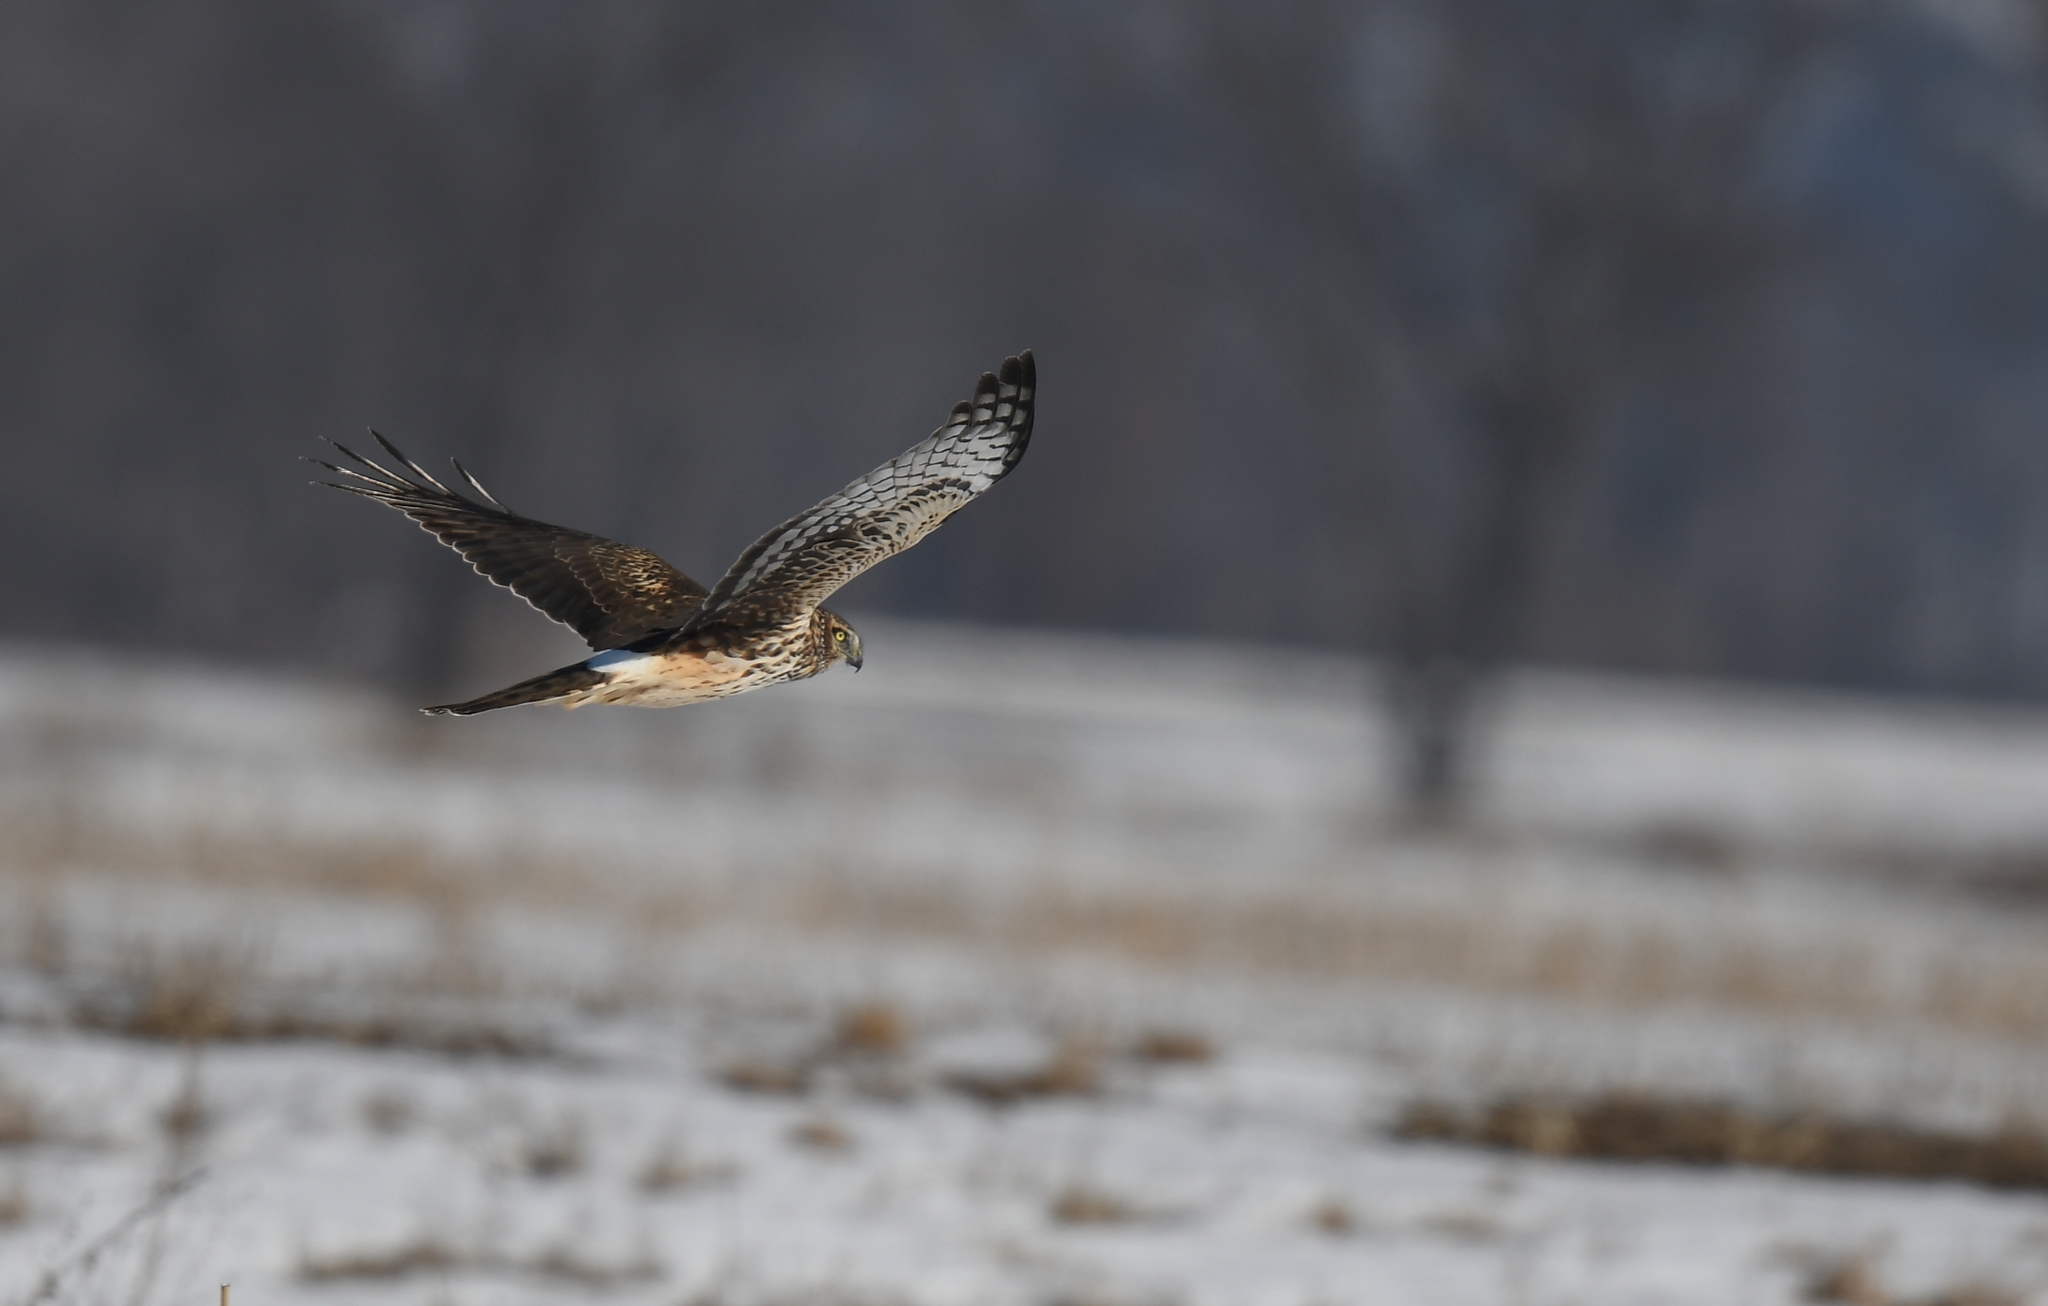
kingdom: Animalia
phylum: Chordata
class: Aves
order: Accipitriformes
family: Accipitridae
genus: Circus
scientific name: Circus cyaneus
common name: Hen harrier
